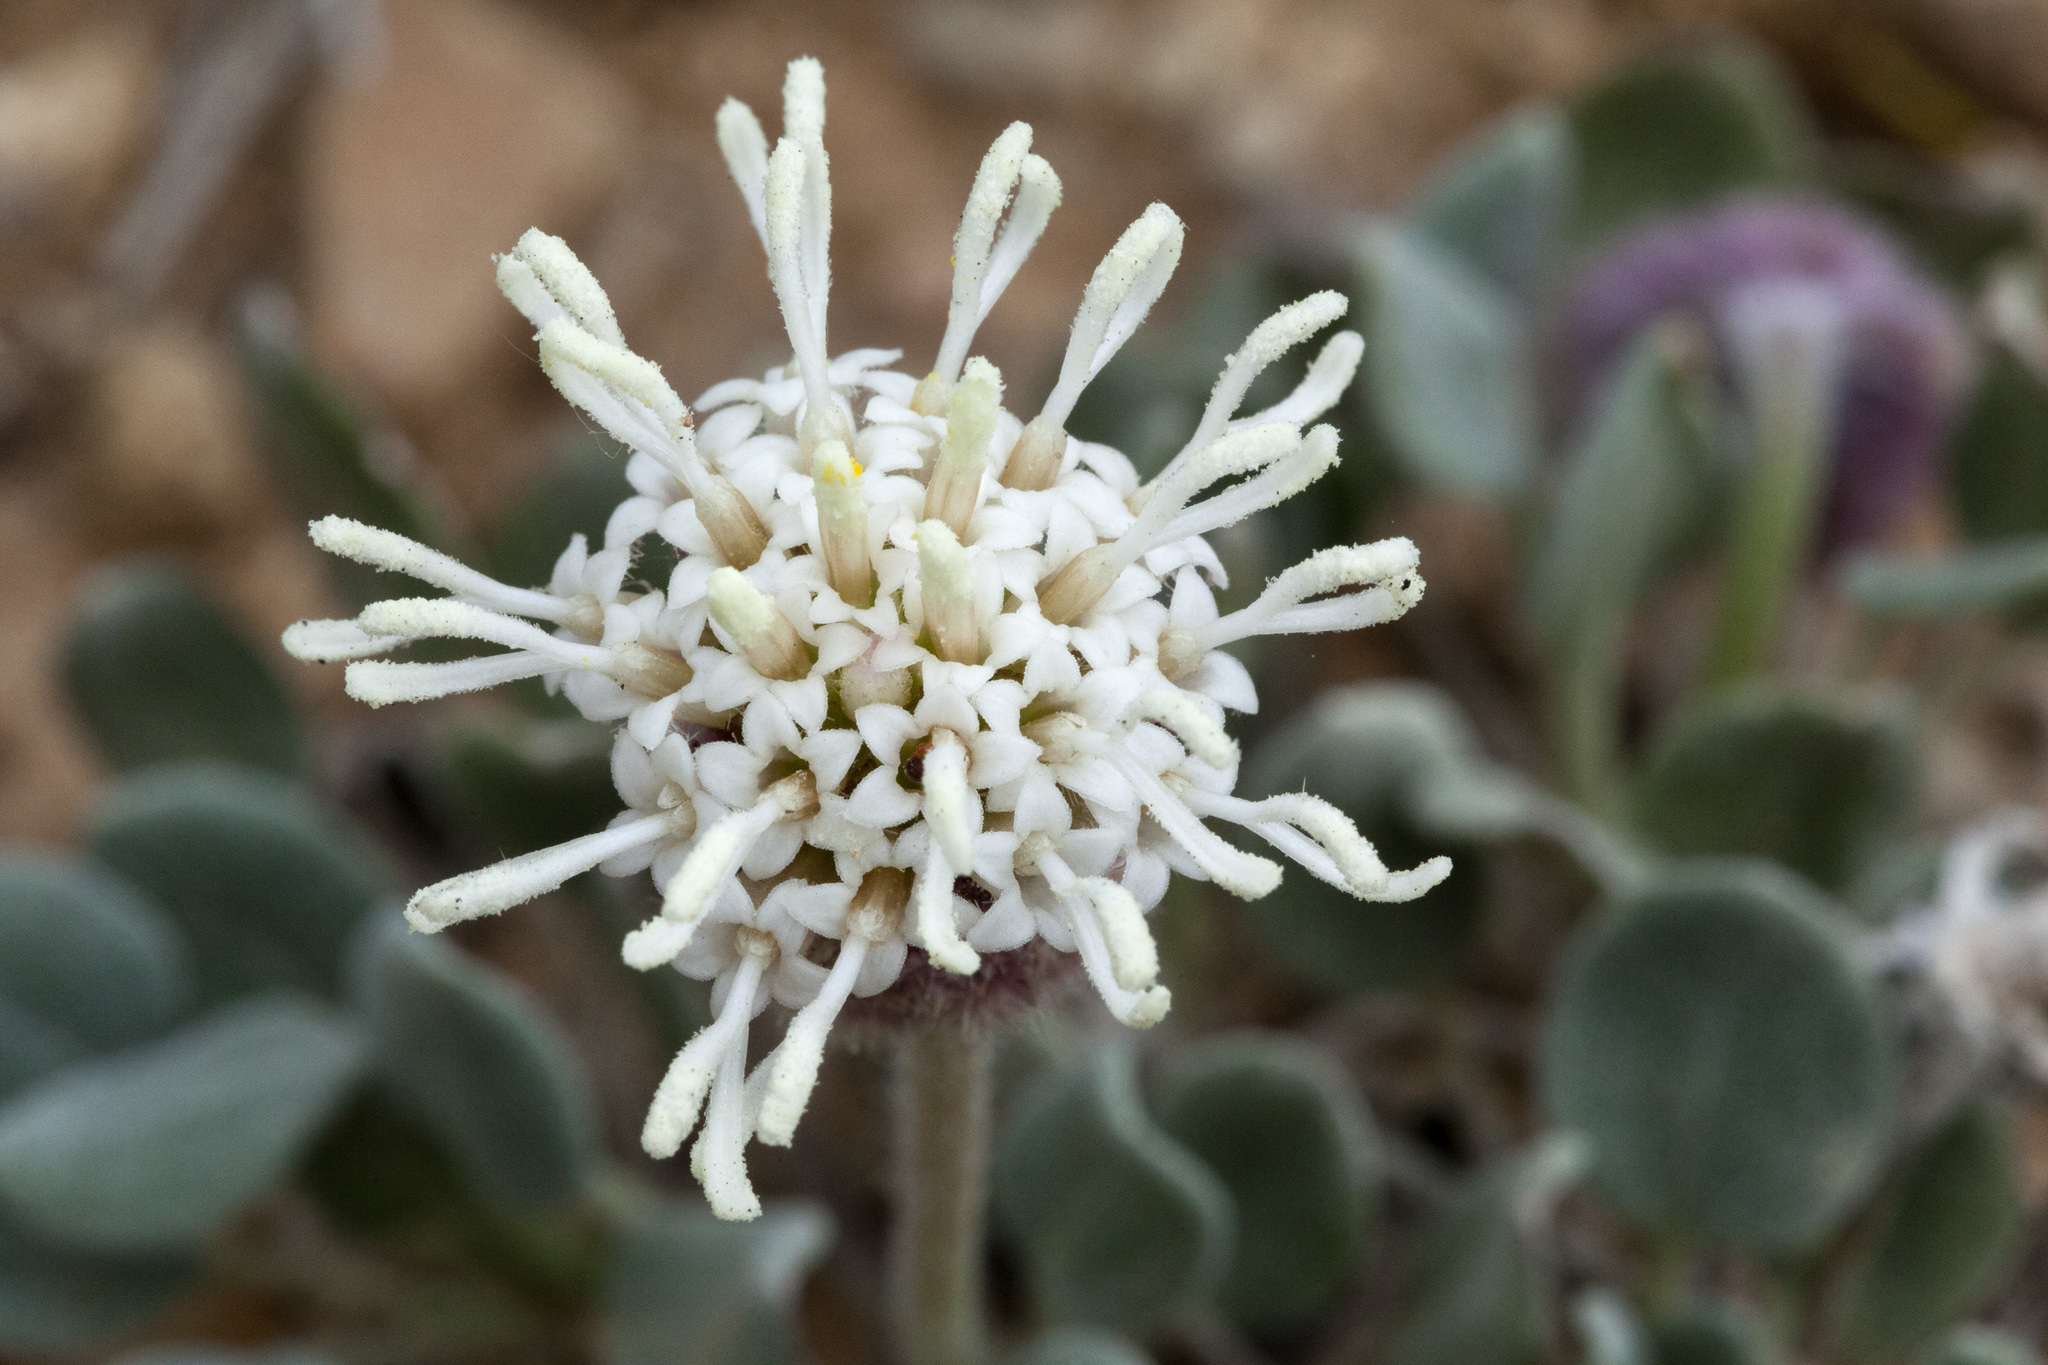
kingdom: Plantae
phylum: Tracheophyta
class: Magnoliopsida
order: Asterales
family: Asteraceae
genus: Chamaechaenactis
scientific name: Chamaechaenactis scaposa
